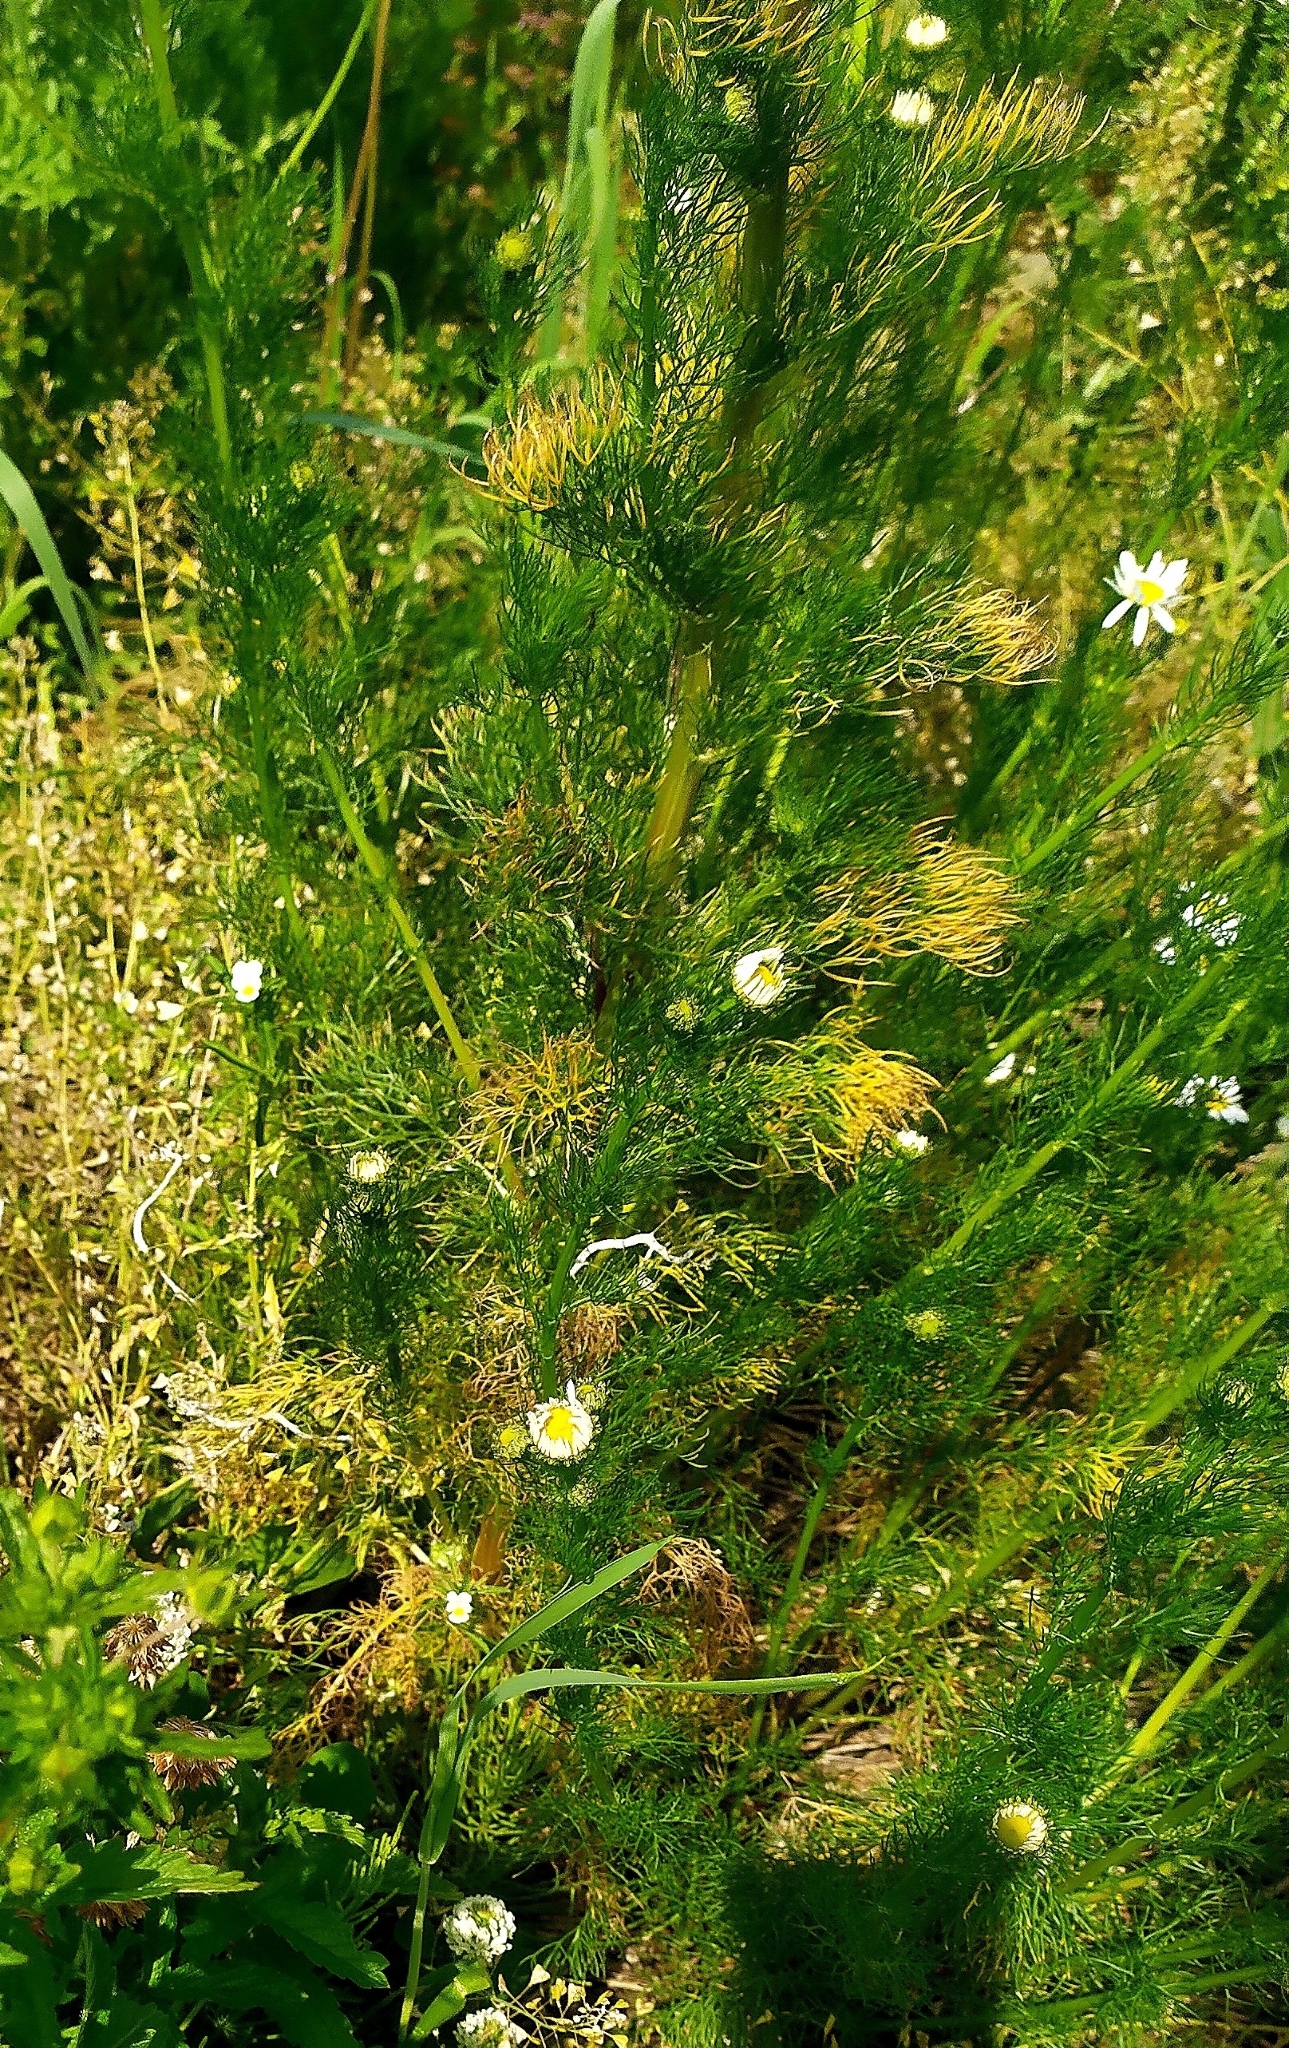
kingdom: Plantae
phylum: Tracheophyta
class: Magnoliopsida
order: Asterales
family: Asteraceae
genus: Tripleurospermum
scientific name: Tripleurospermum inodorum
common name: Scentless mayweed
